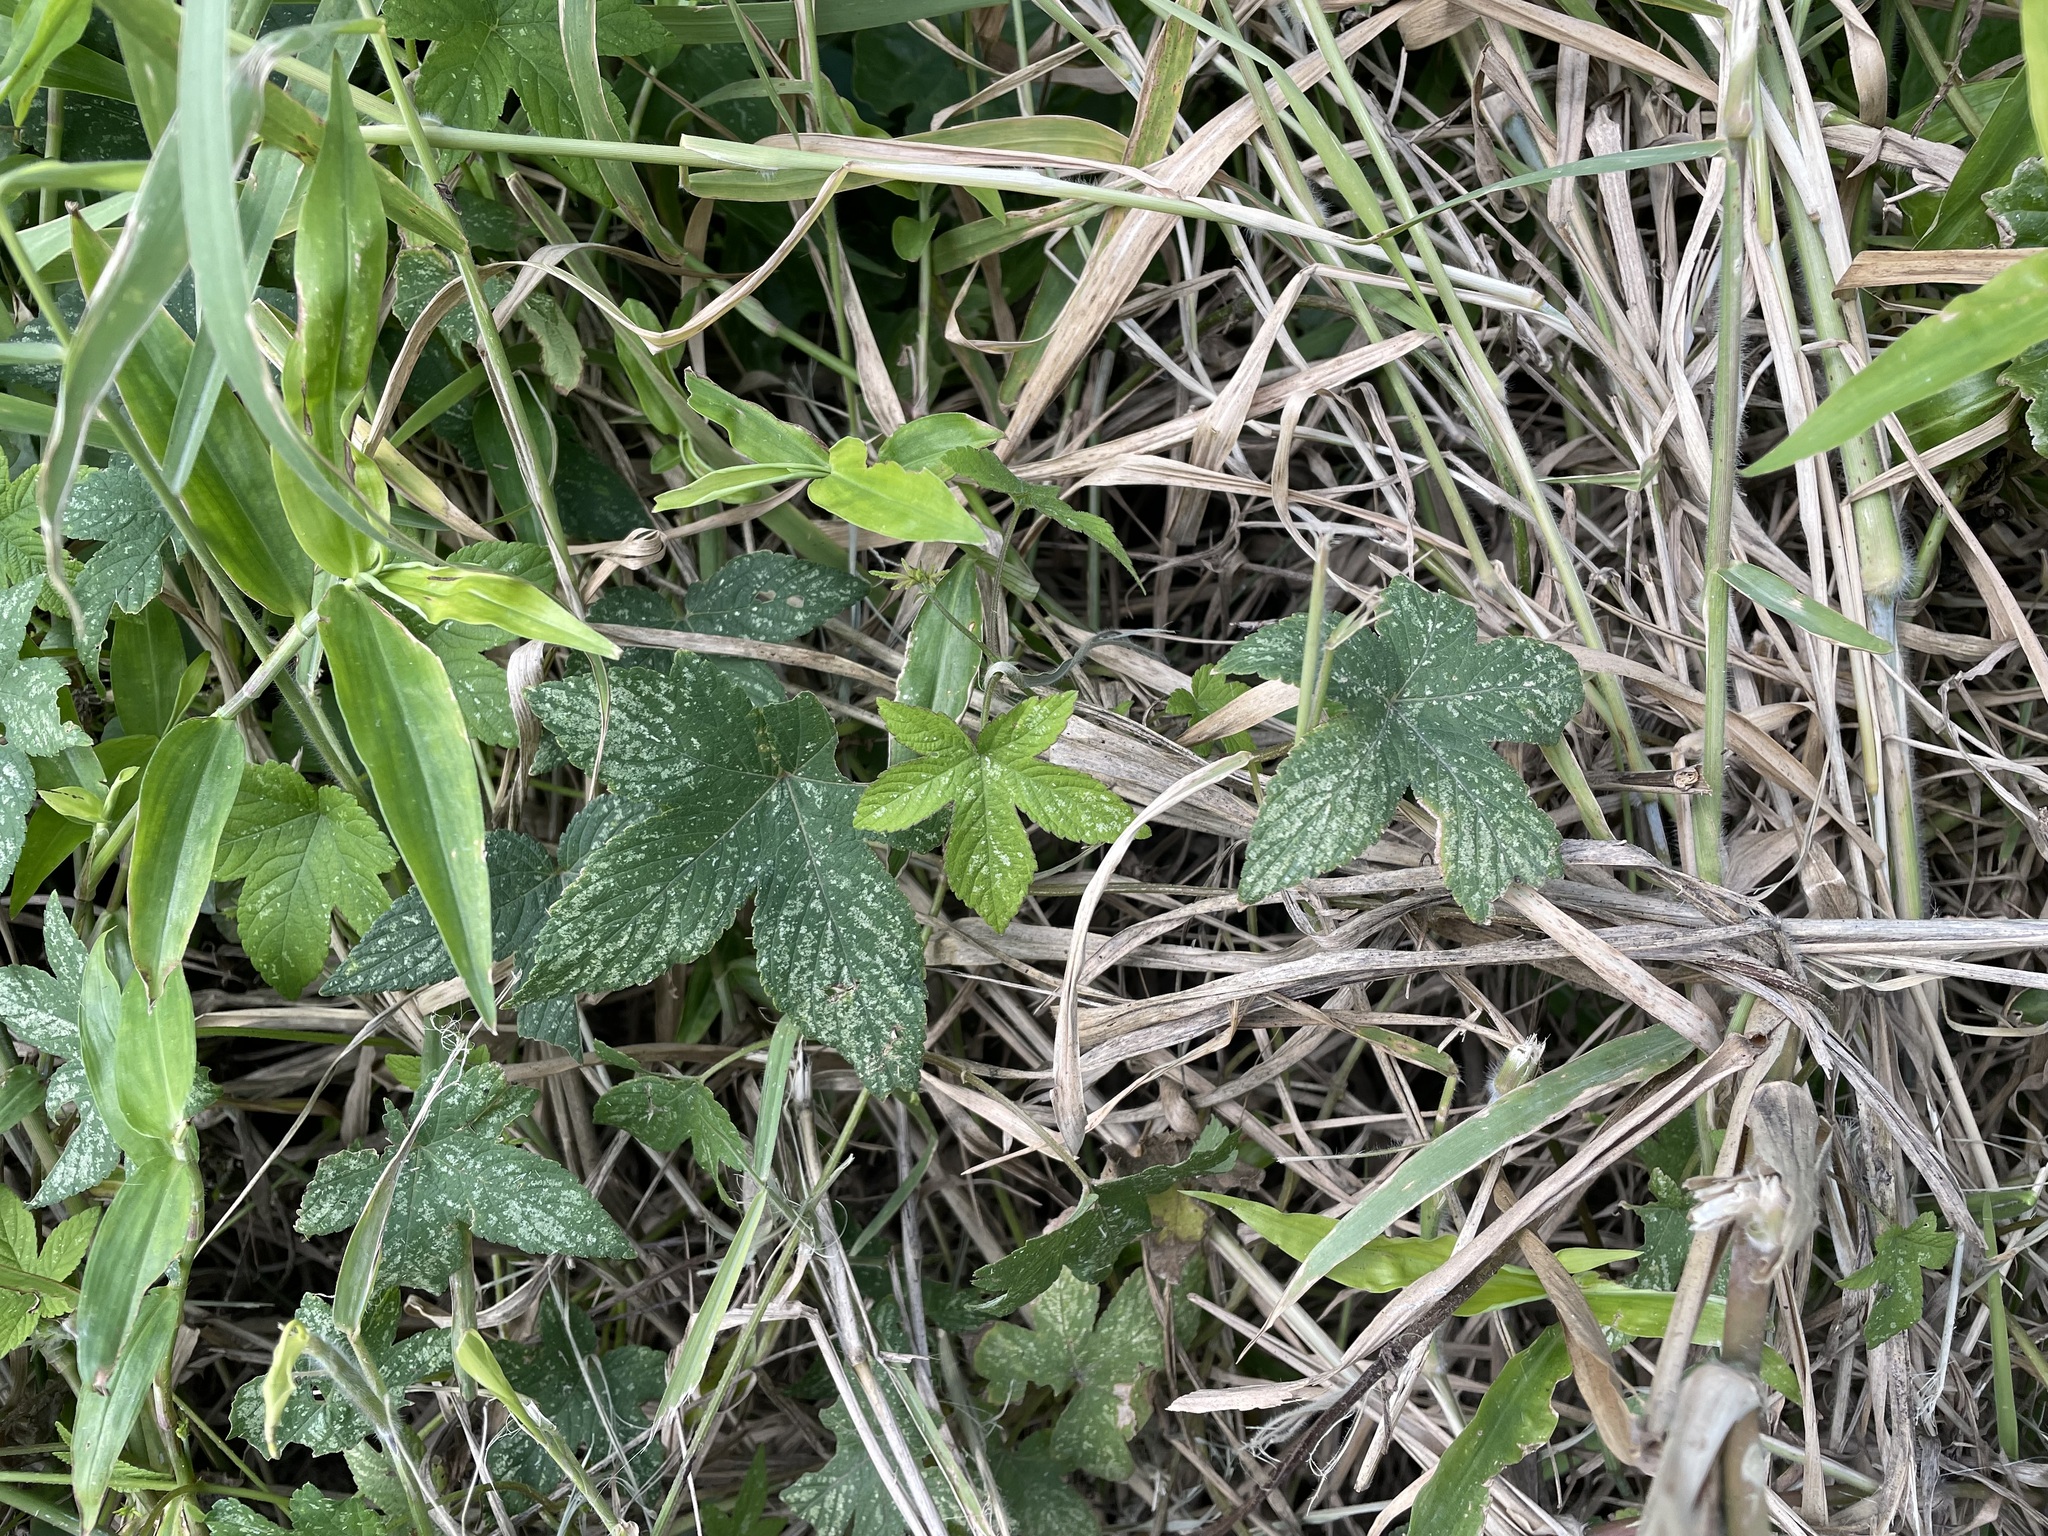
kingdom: Plantae
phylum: Tracheophyta
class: Magnoliopsida
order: Rosales
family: Cannabaceae
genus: Humulus
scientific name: Humulus scandens
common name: Japanese hop
